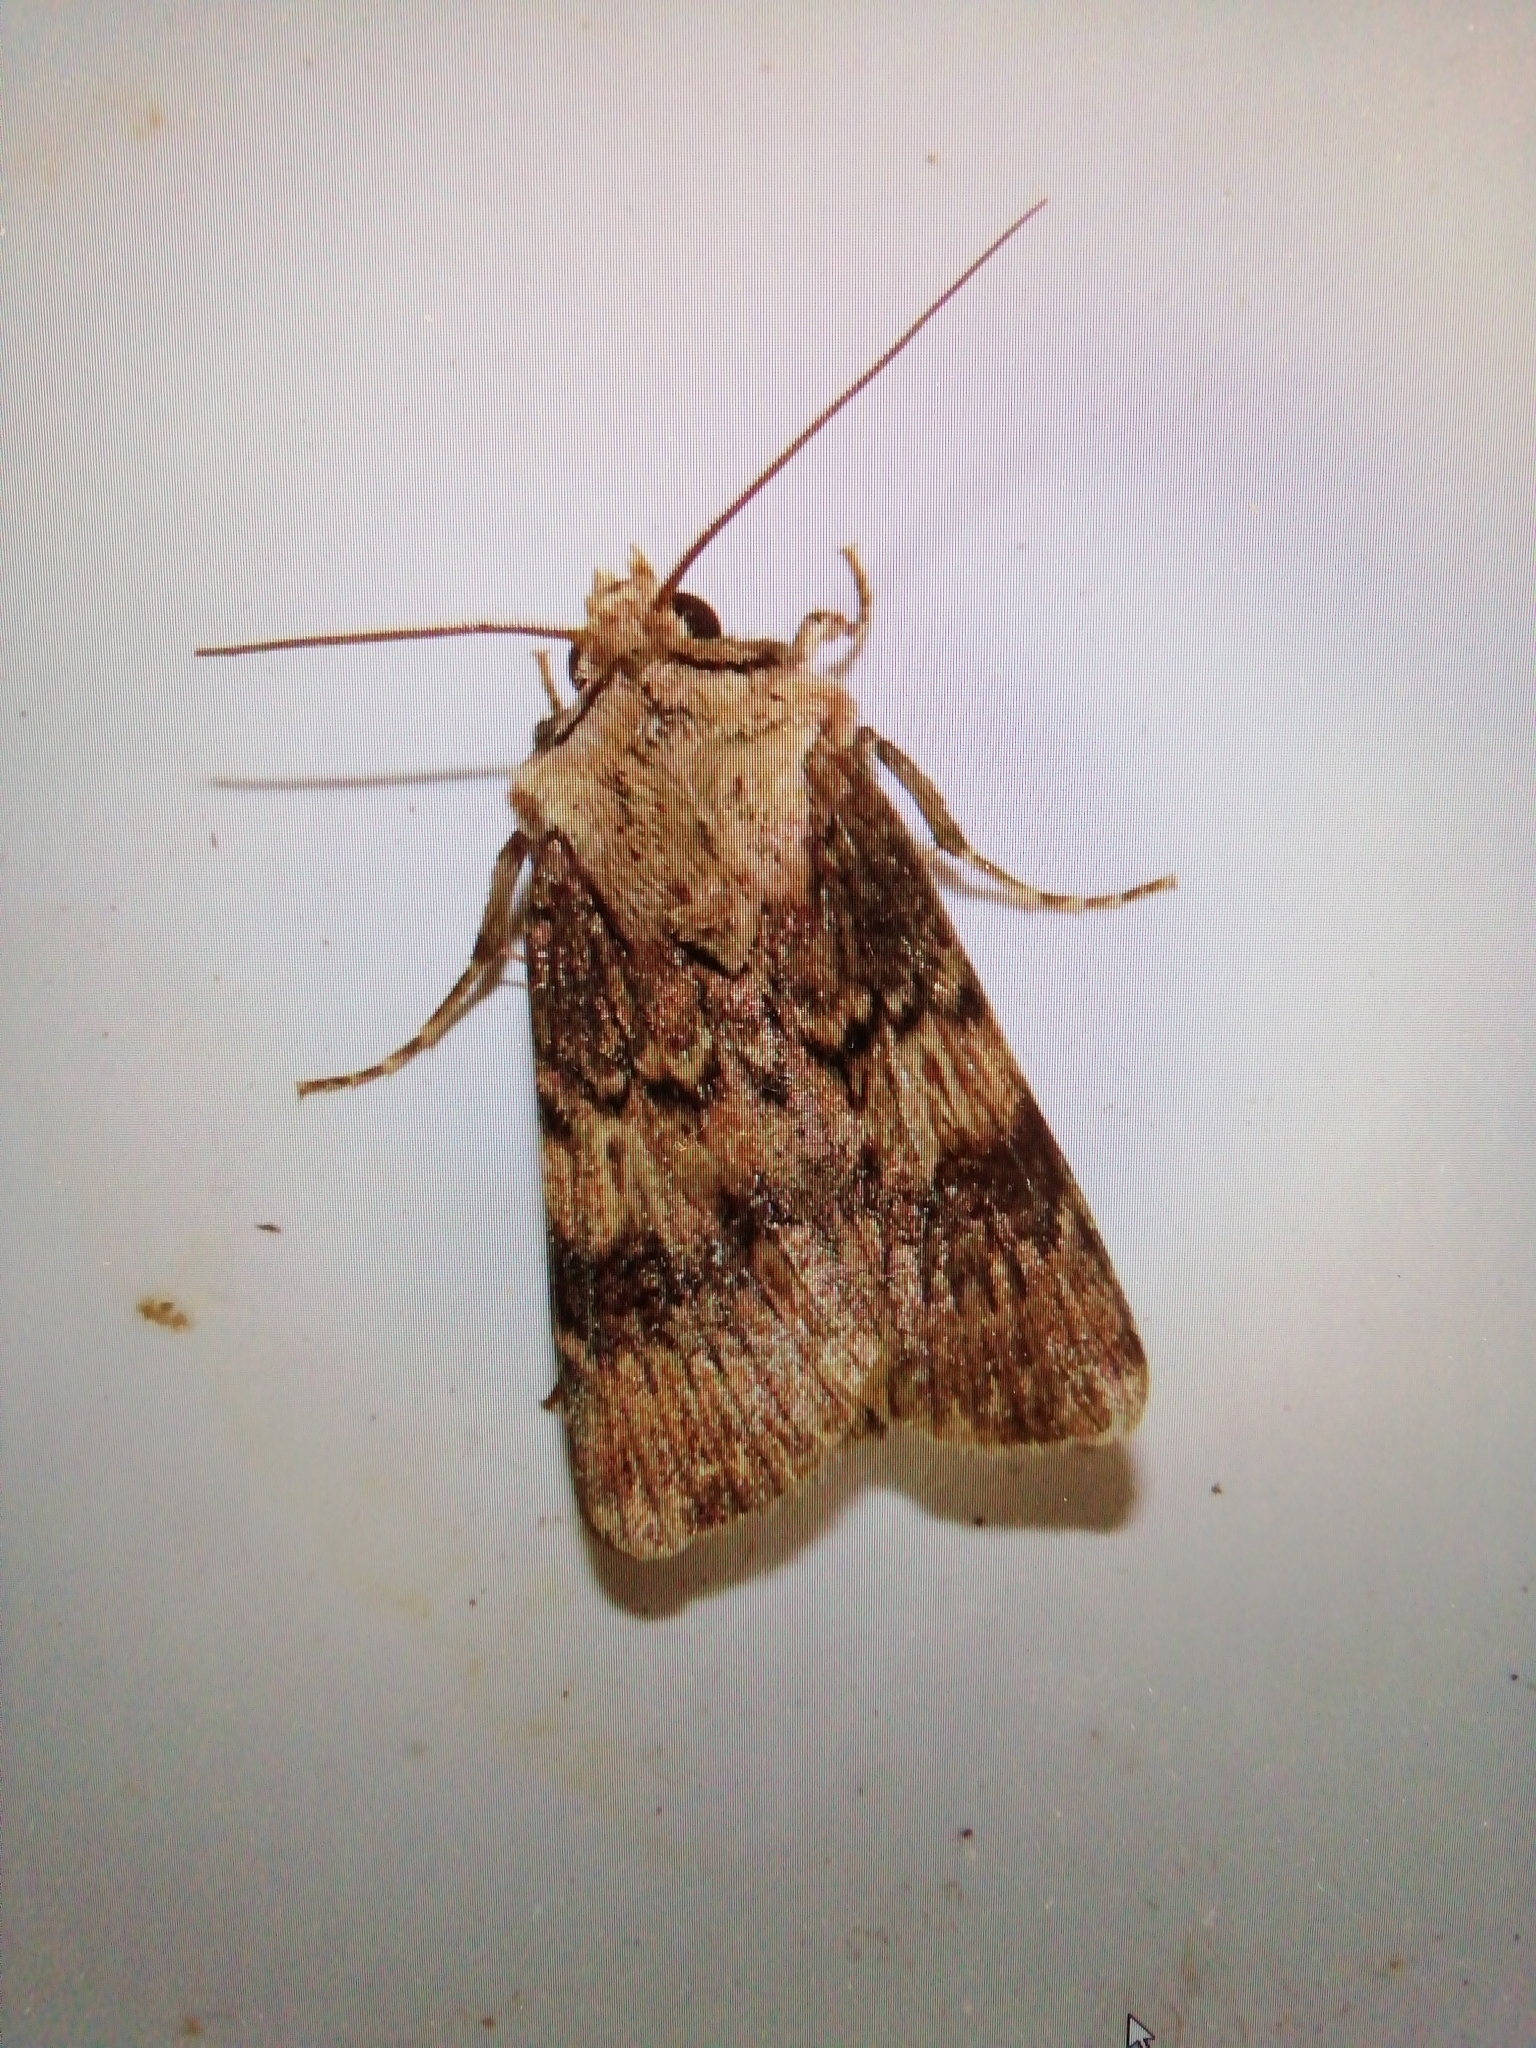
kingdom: Animalia
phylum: Arthropoda
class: Insecta
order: Lepidoptera
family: Noctuidae
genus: Agrotis
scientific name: Agrotis puta
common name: Shuttle-shaped dart
